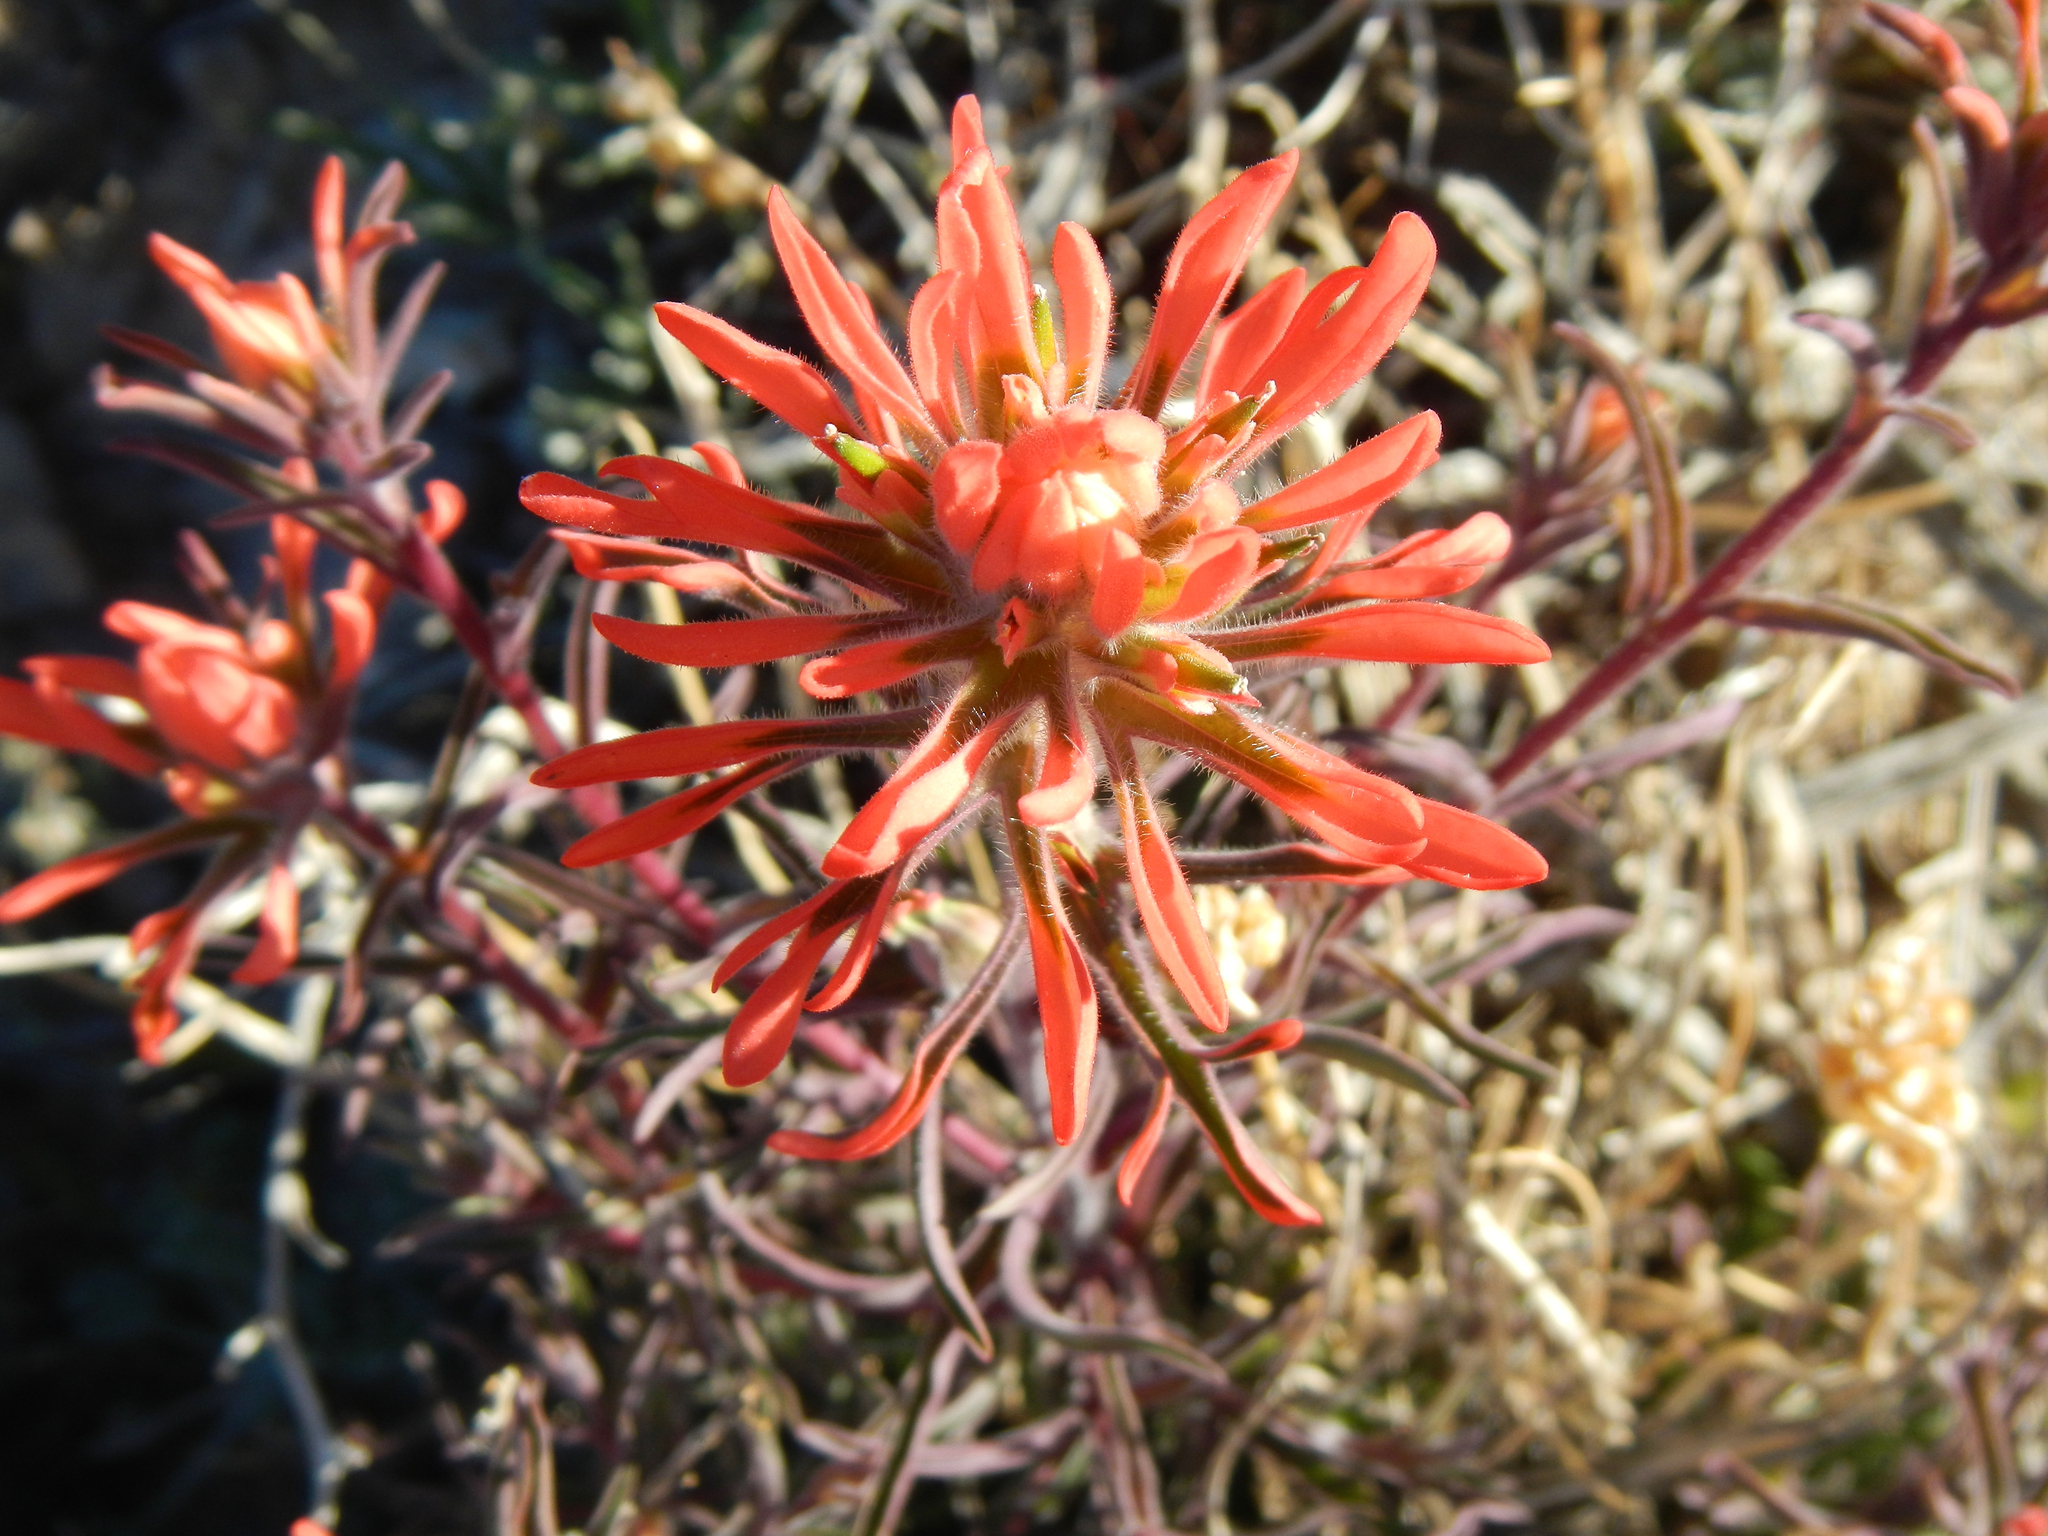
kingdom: Plantae
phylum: Tracheophyta
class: Magnoliopsida
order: Lamiales
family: Orobanchaceae
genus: Castilleja
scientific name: Castilleja chromosa
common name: Desert paintbrush
